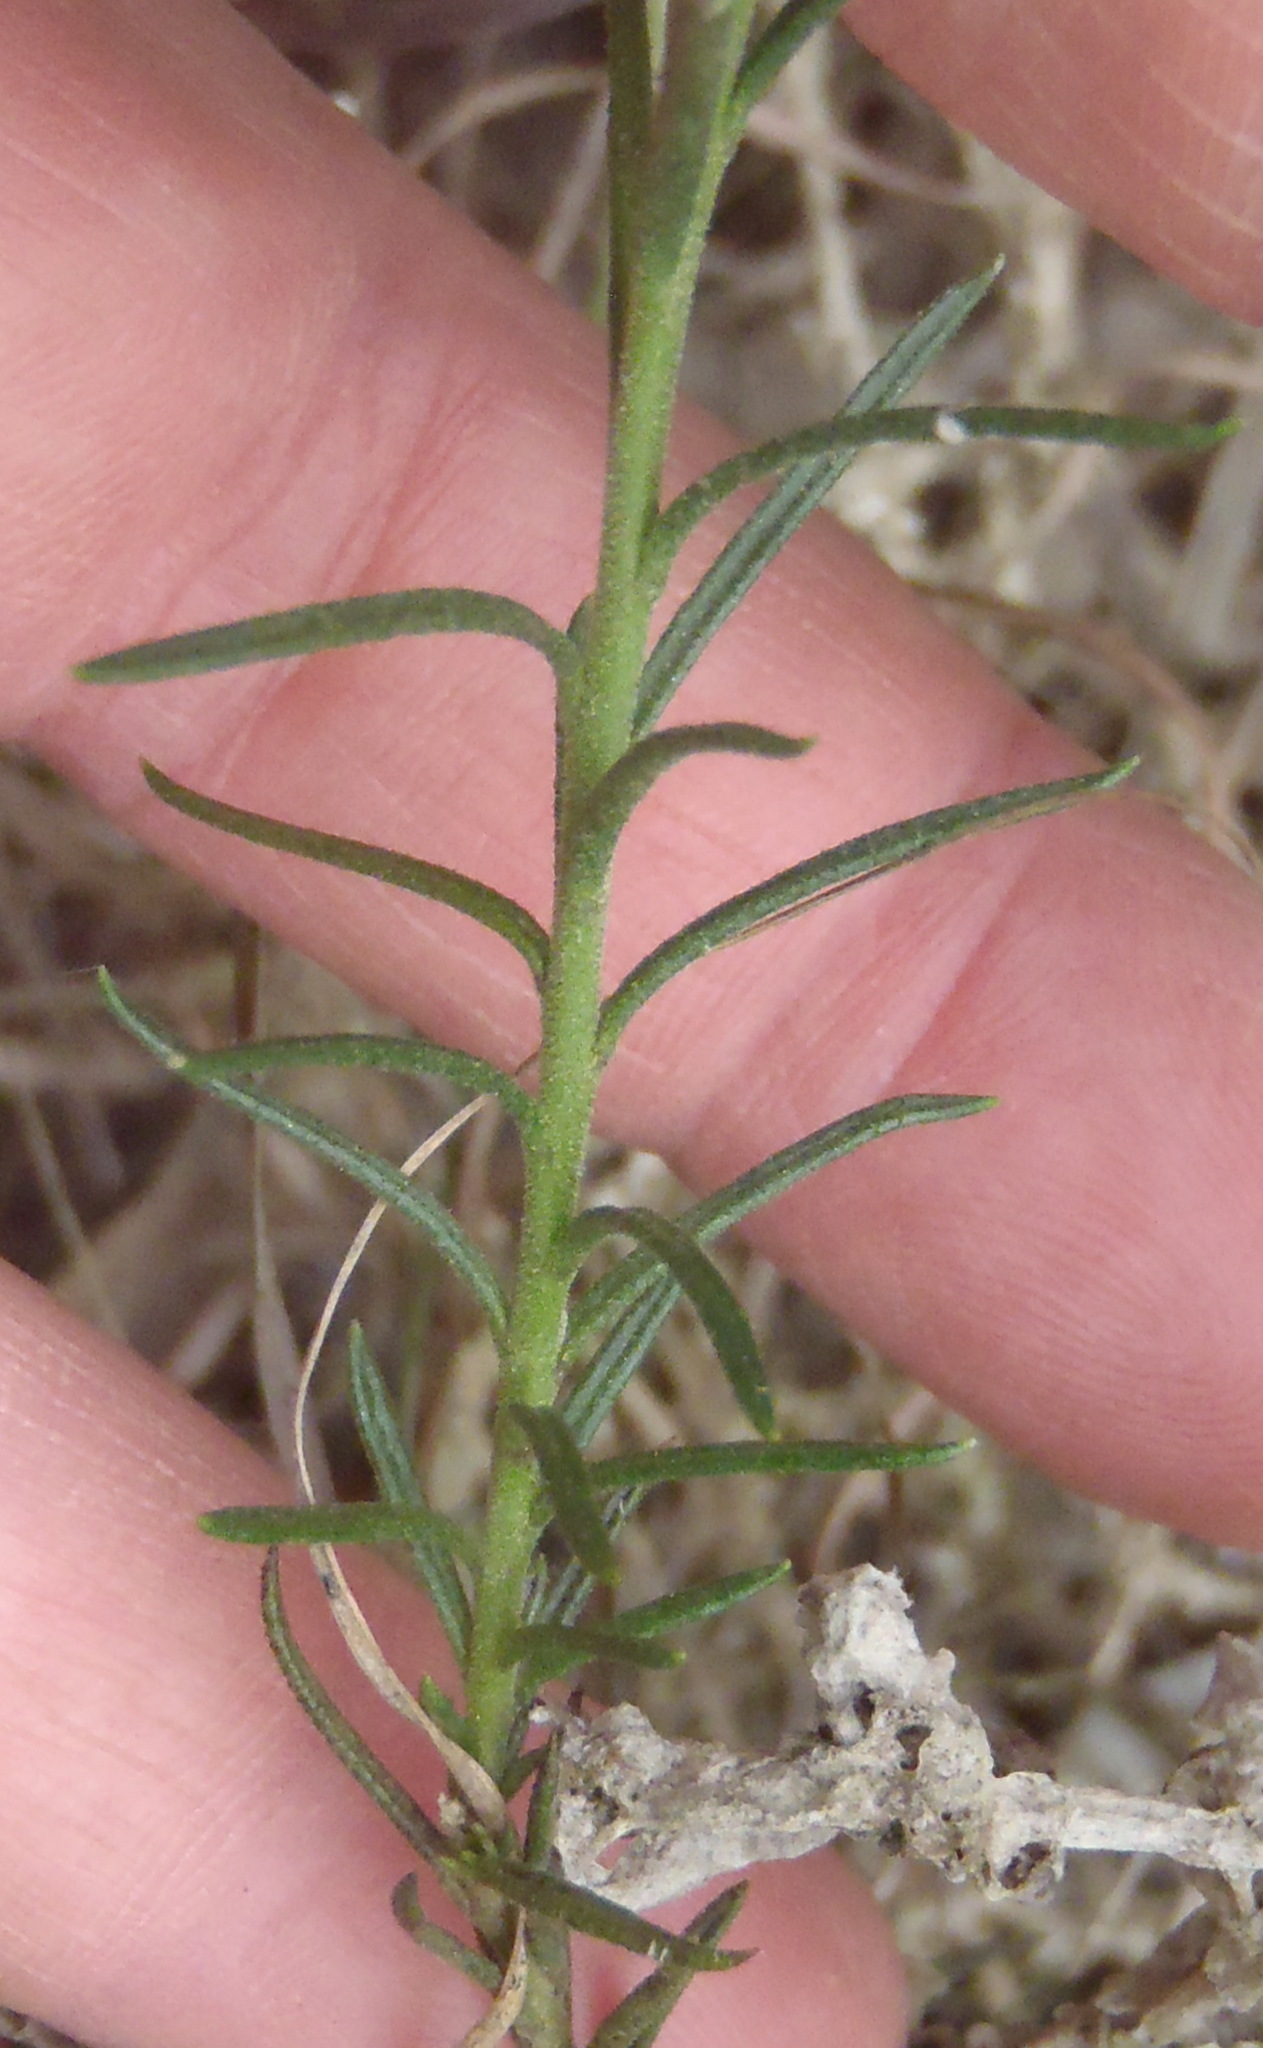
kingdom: Plantae
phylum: Tracheophyta
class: Magnoliopsida
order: Brassicales
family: Brassicaceae
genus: Heliophila
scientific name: Heliophila subulata
